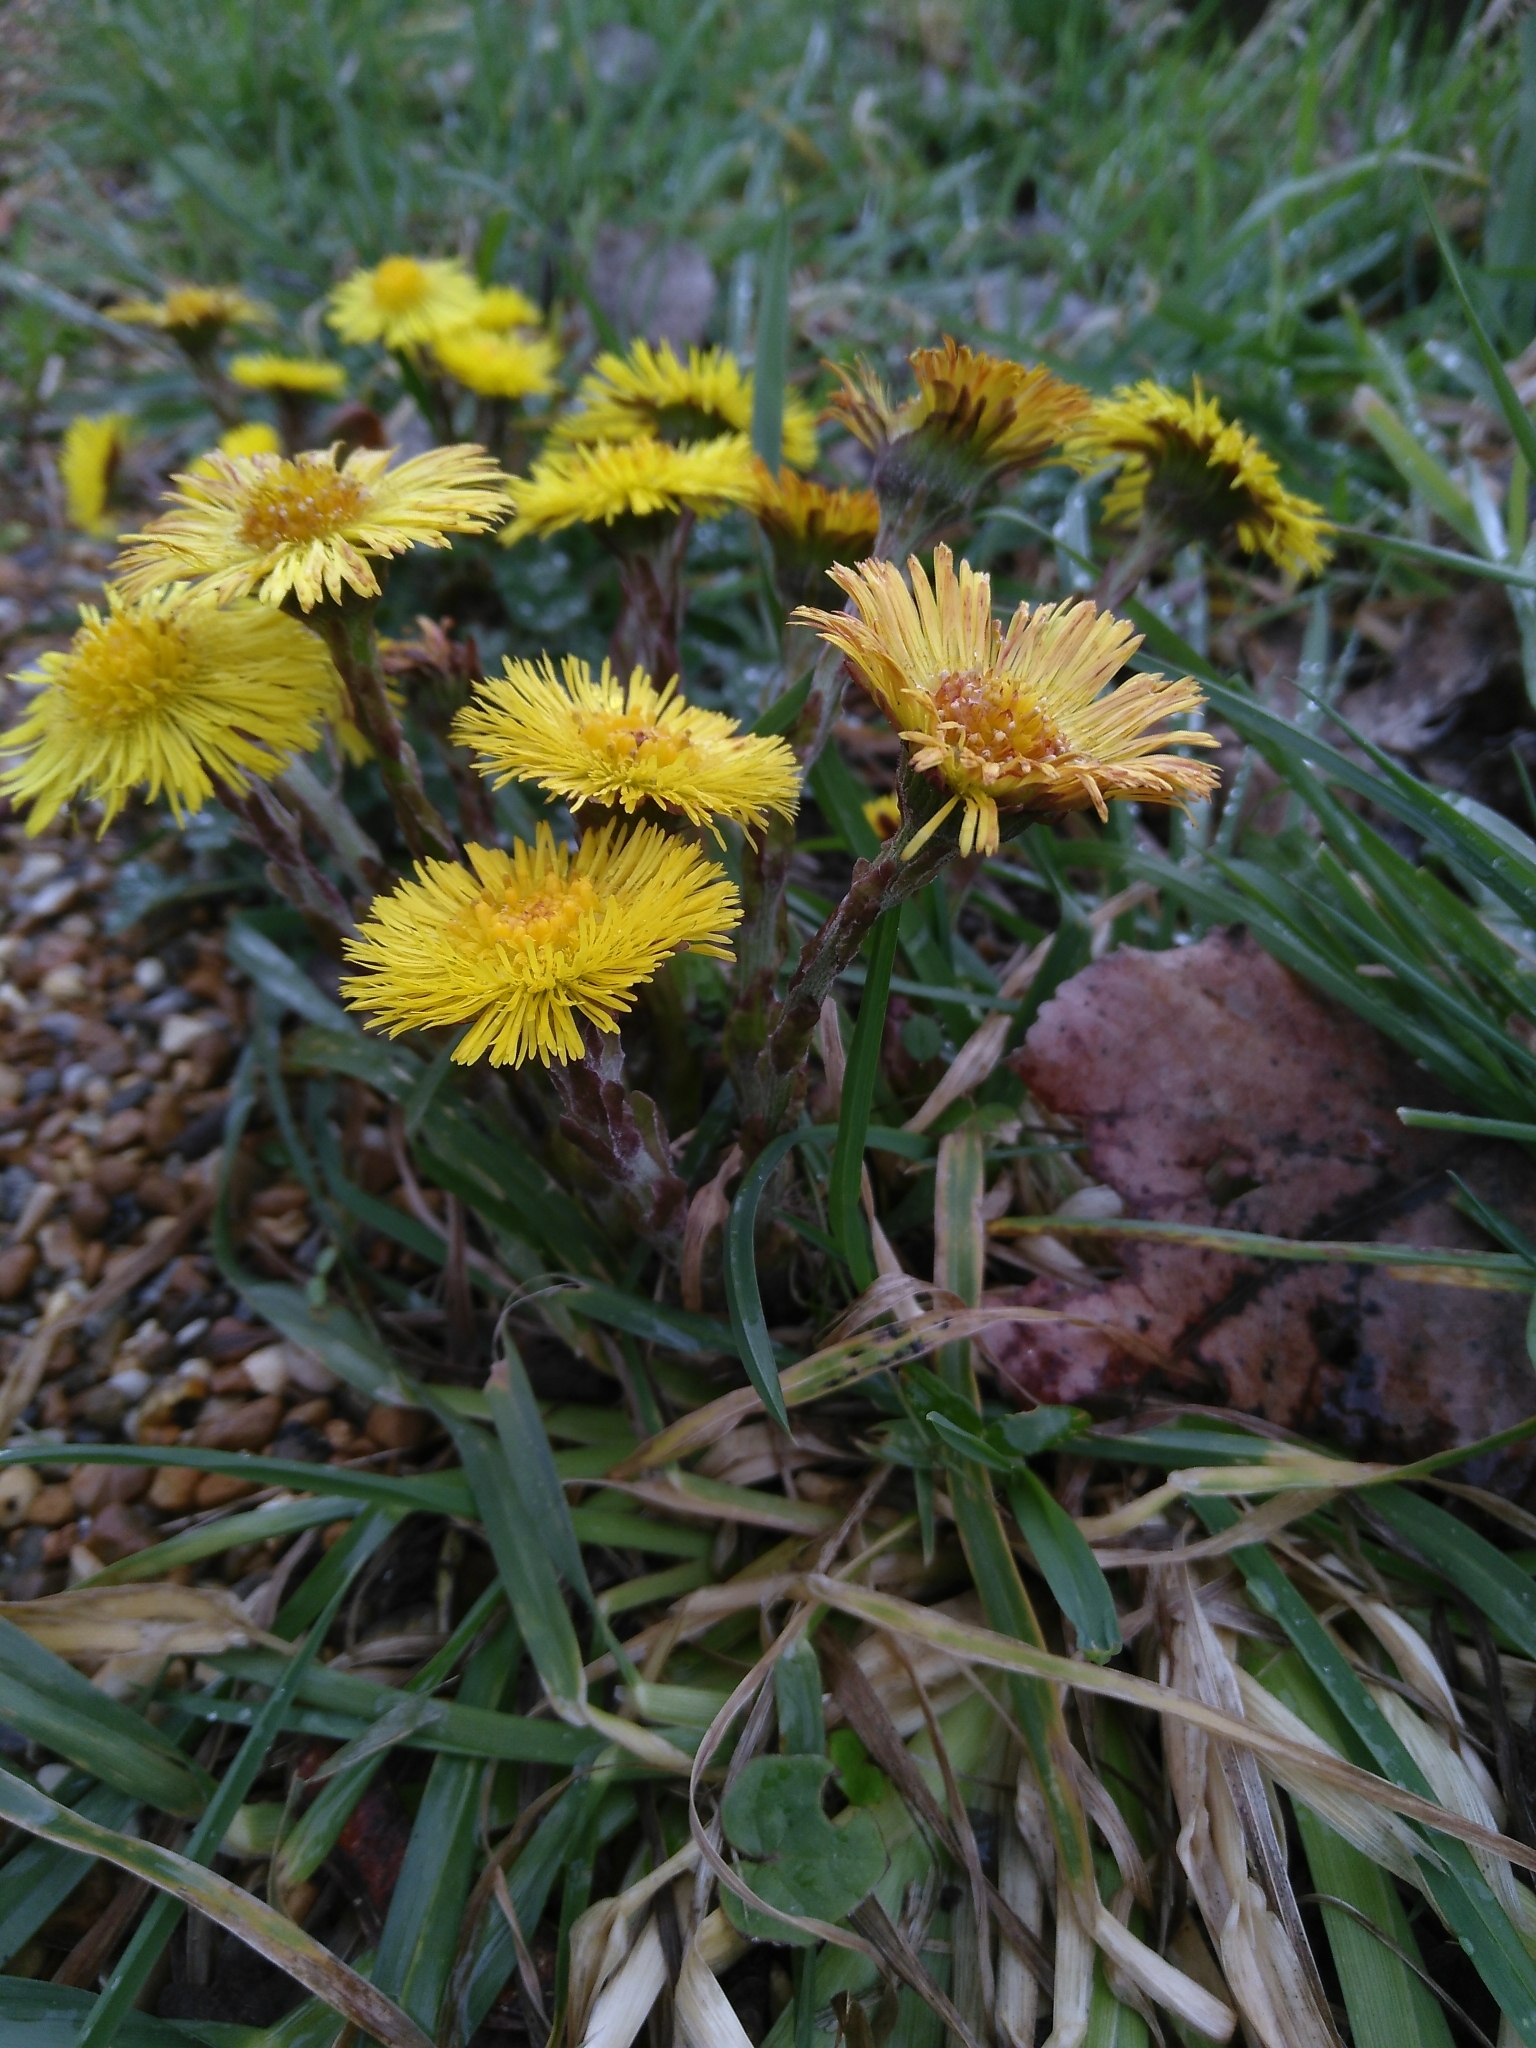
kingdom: Plantae
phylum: Tracheophyta
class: Magnoliopsida
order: Asterales
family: Asteraceae
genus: Tussilago
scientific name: Tussilago farfara
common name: Coltsfoot
